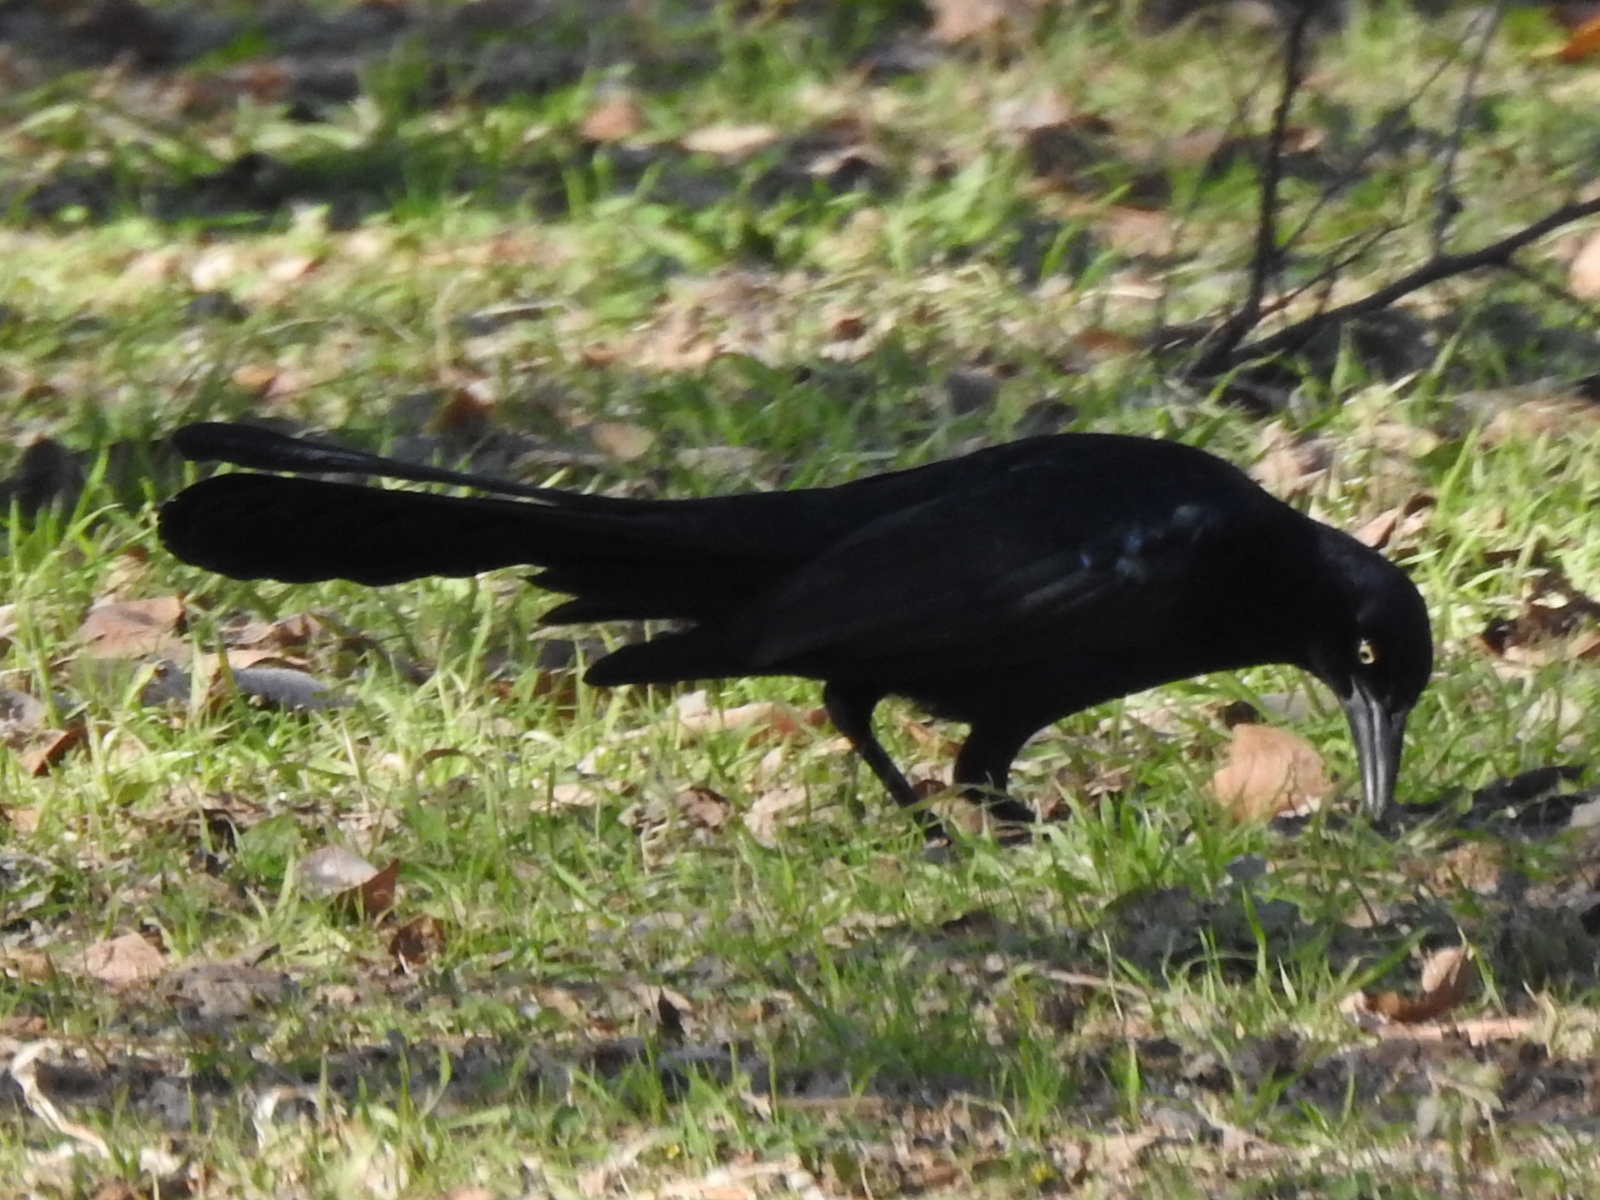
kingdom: Animalia
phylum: Chordata
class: Aves
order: Passeriformes
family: Icteridae
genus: Quiscalus
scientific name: Quiscalus mexicanus
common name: Great-tailed grackle
